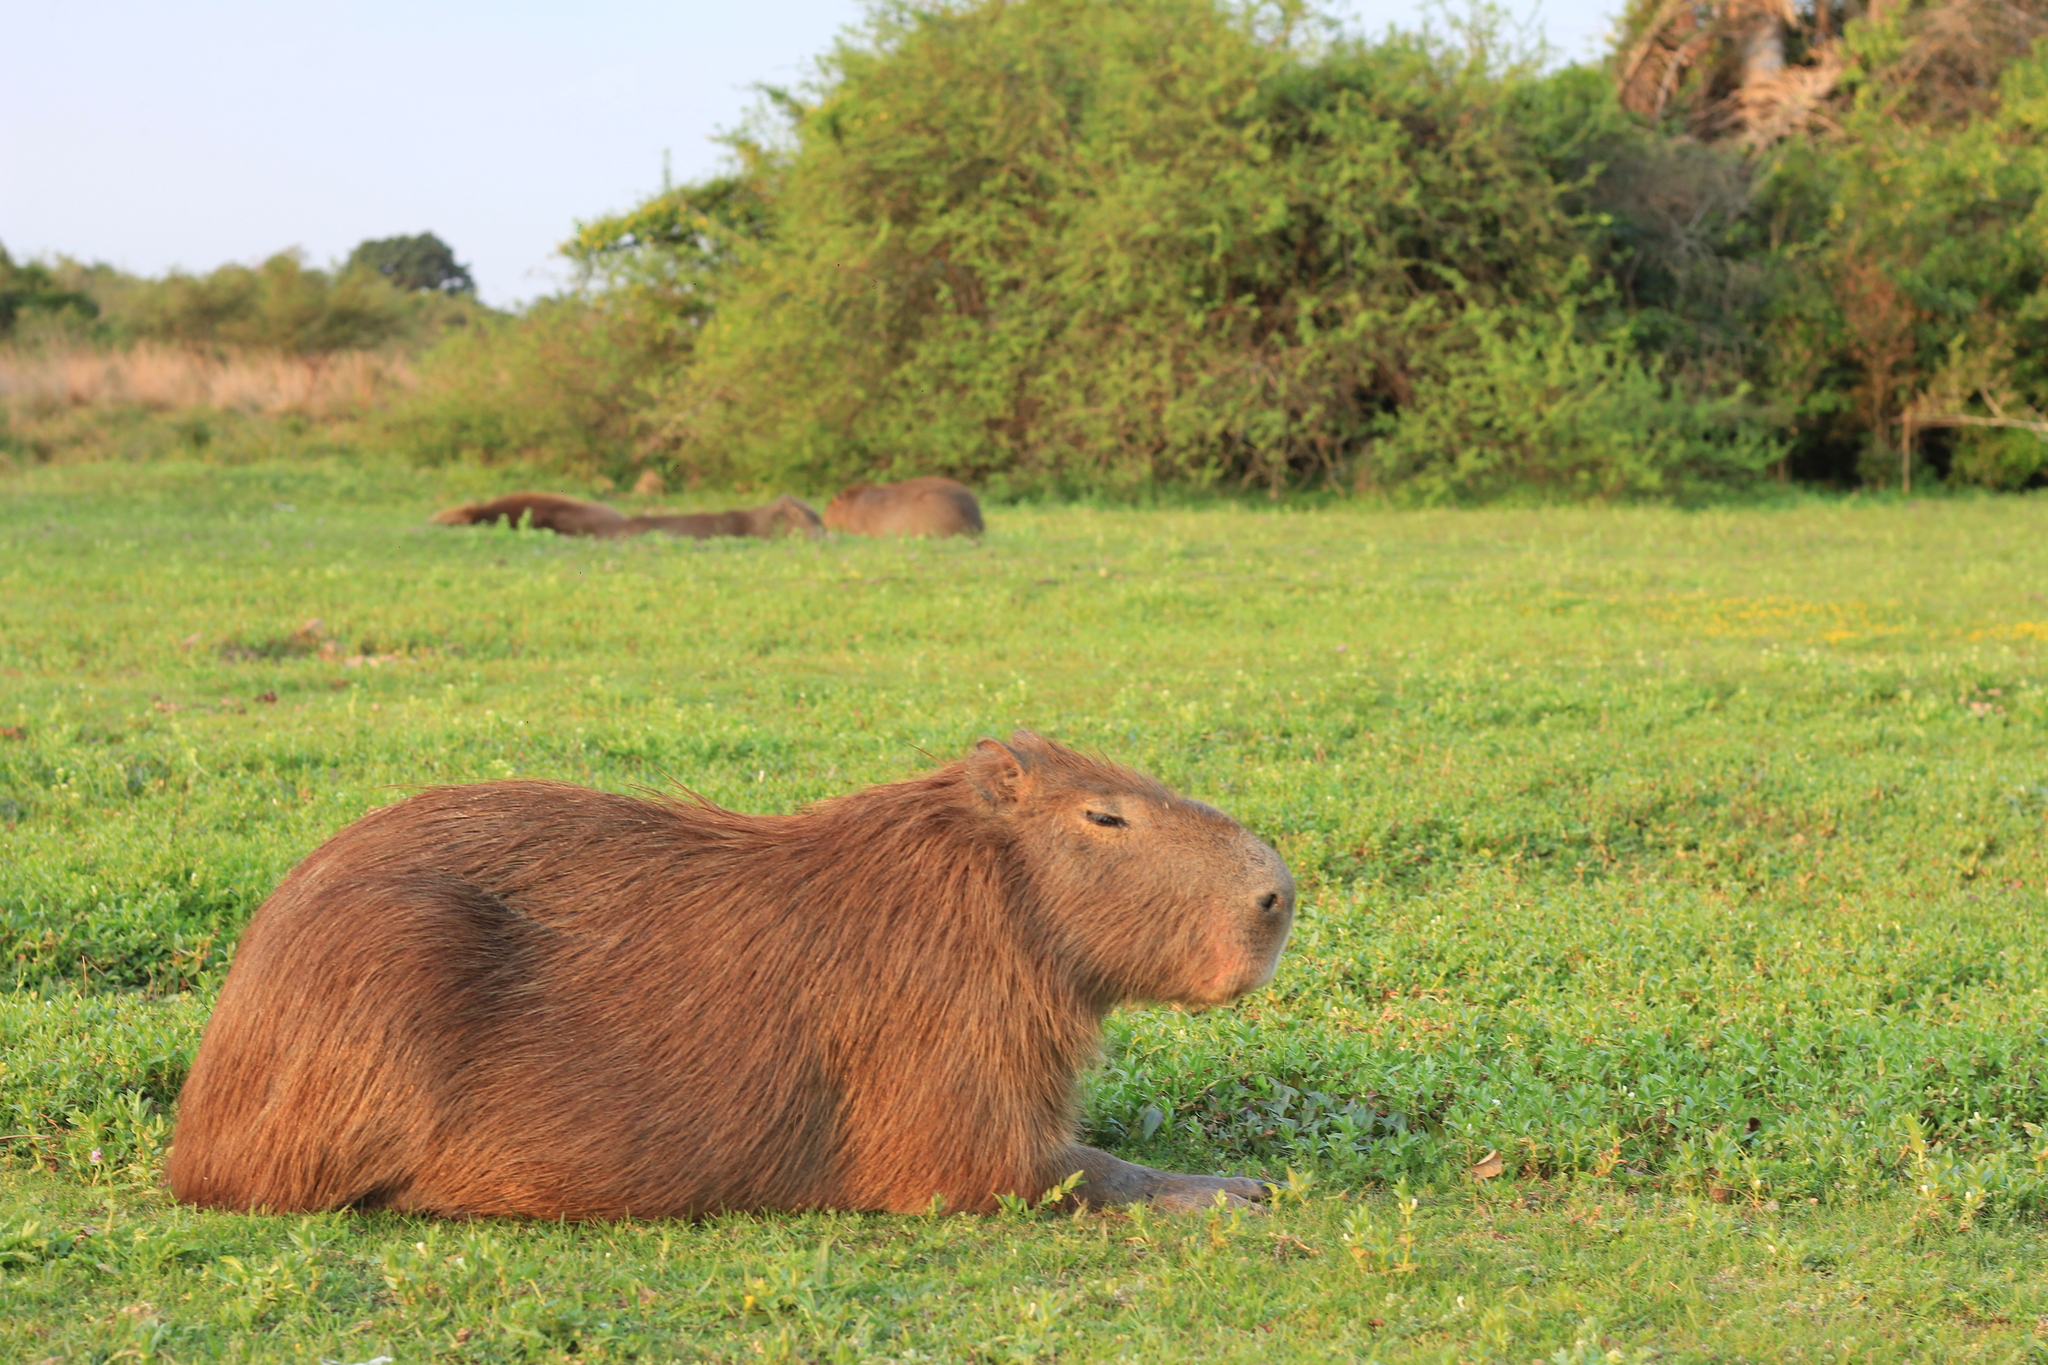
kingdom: Animalia
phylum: Chordata
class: Mammalia
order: Rodentia
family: Caviidae
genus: Hydrochoerus
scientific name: Hydrochoerus hydrochaeris
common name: Capybara
